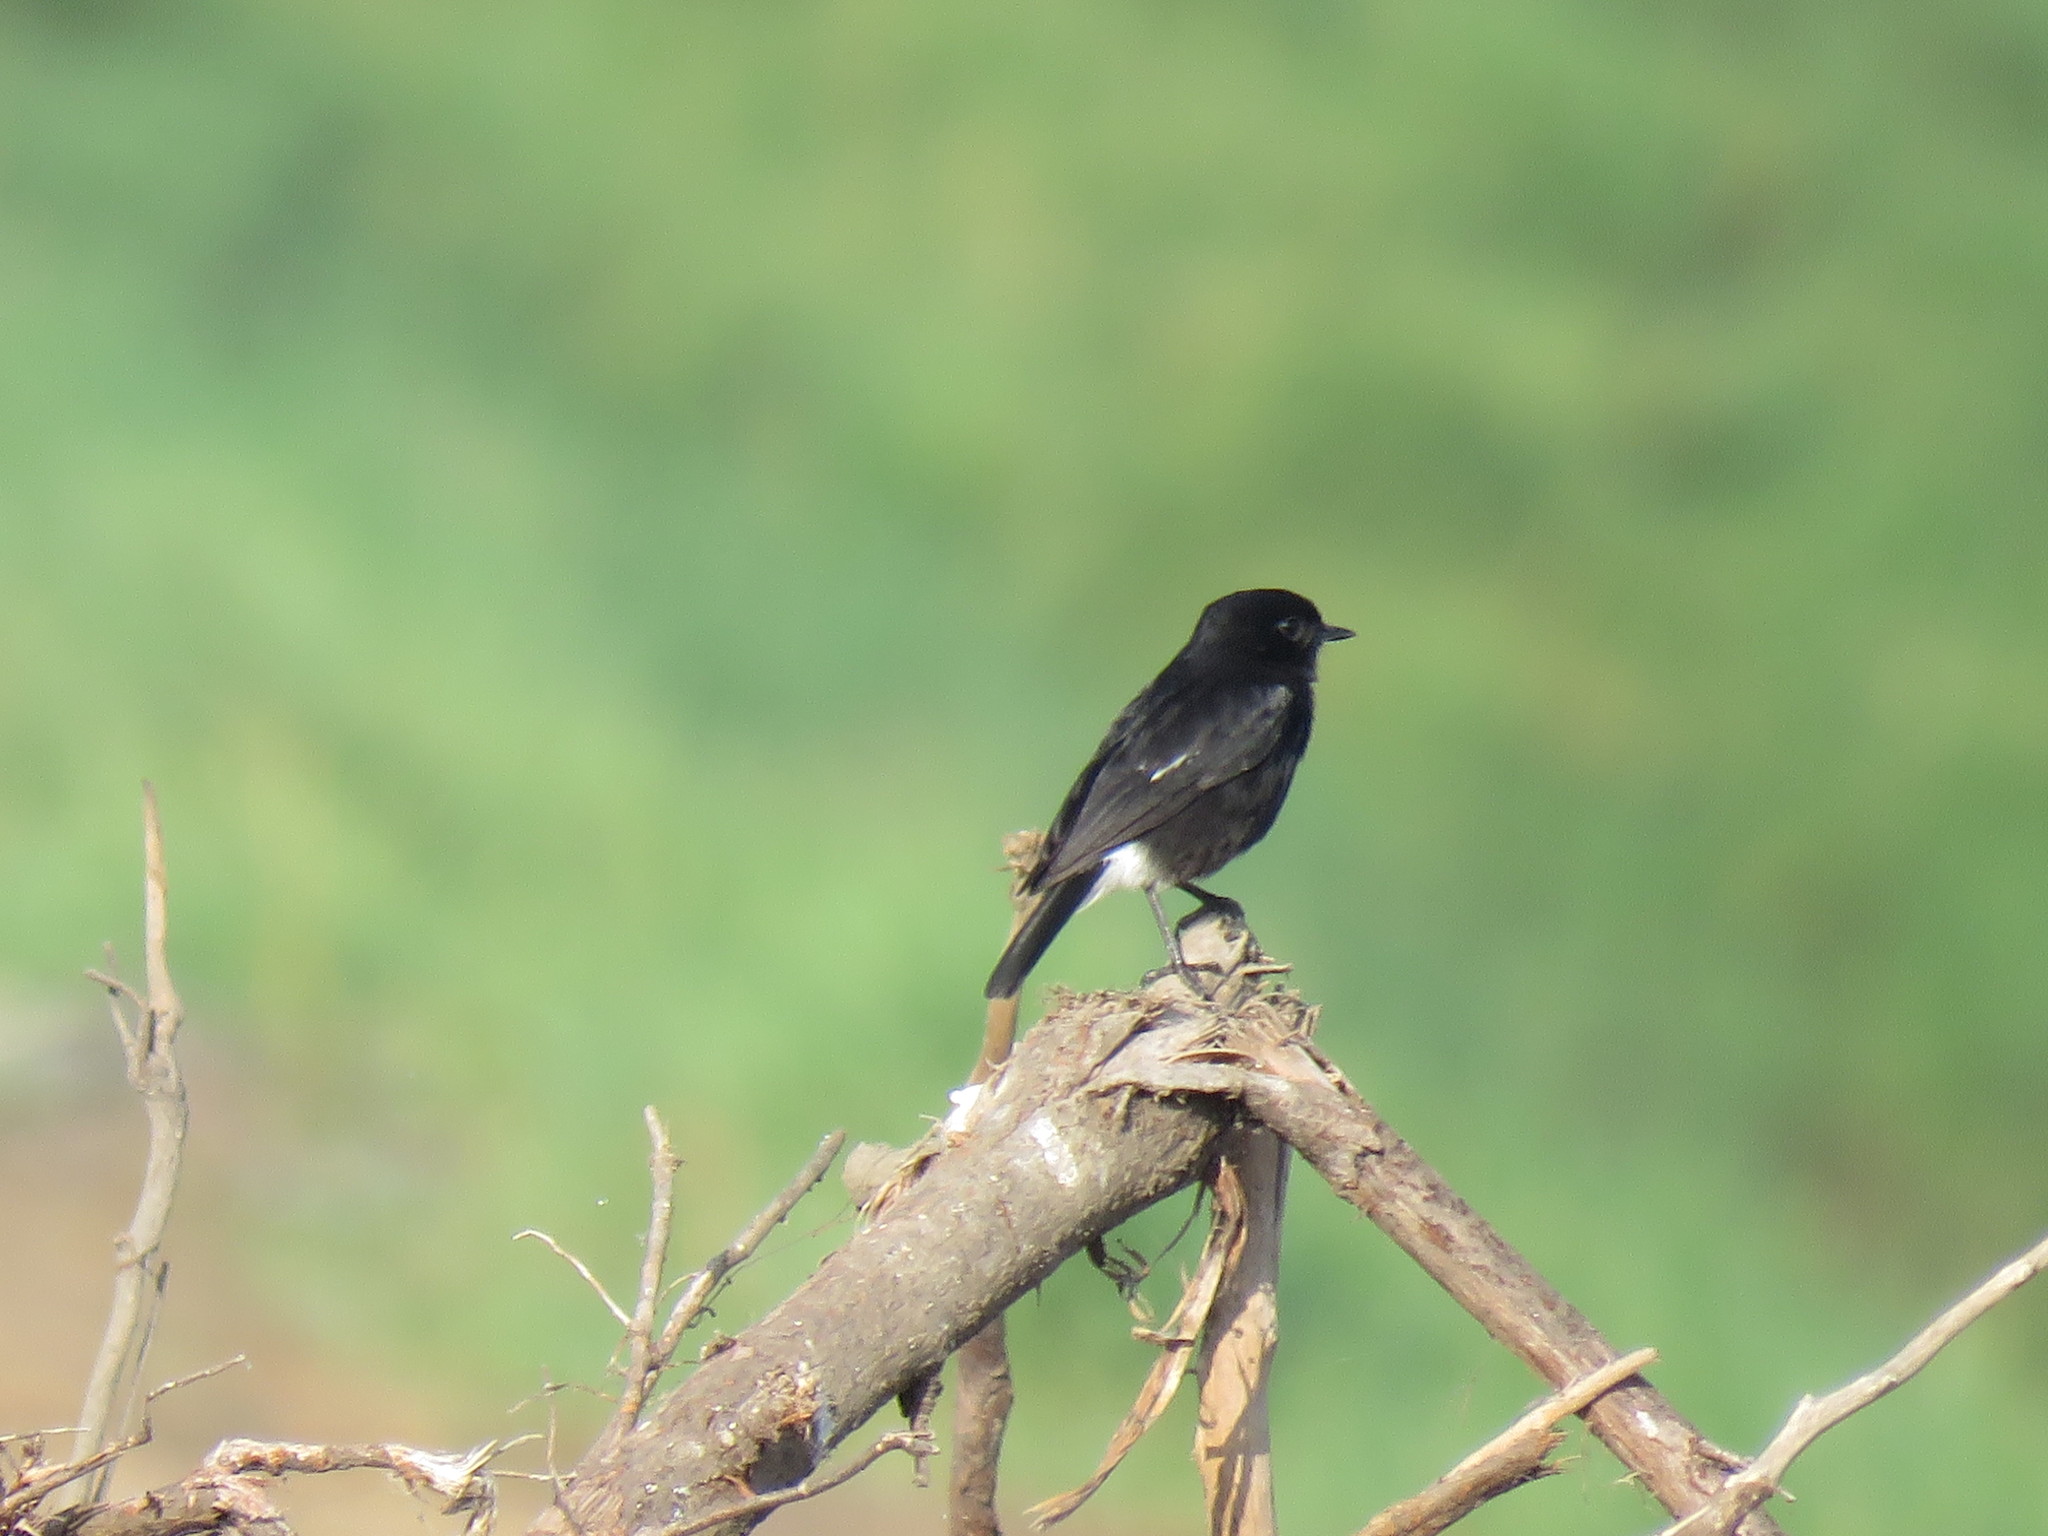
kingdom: Animalia
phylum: Chordata
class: Aves
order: Passeriformes
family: Muscicapidae
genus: Saxicola
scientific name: Saxicola caprata
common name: Pied bush chat
